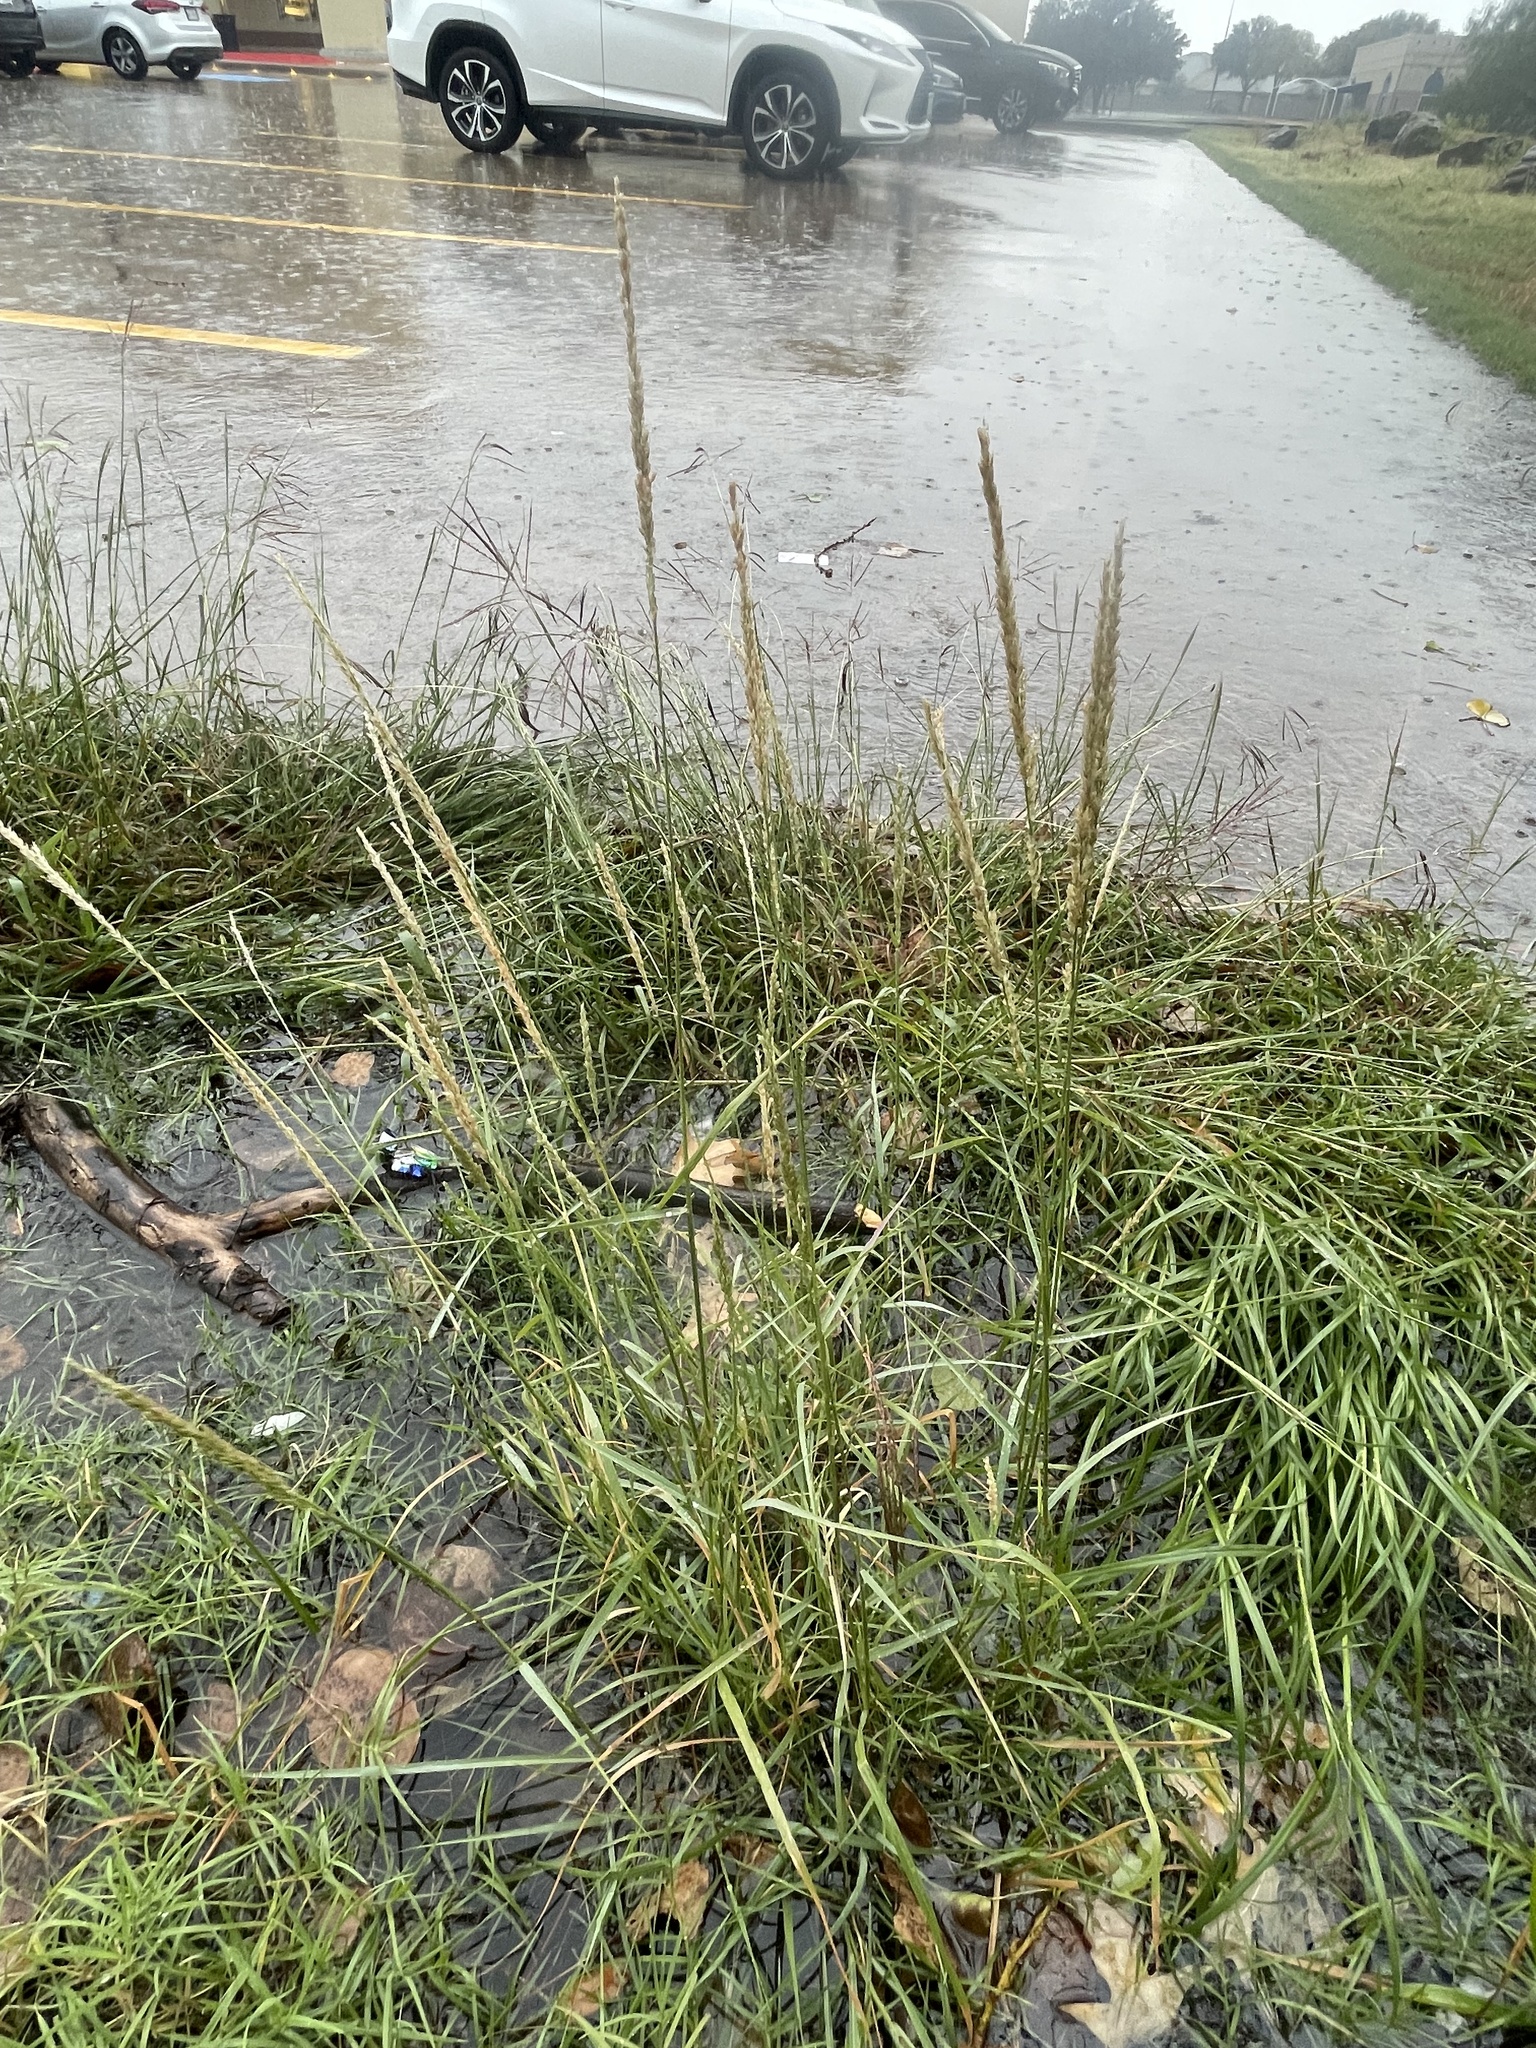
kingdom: Plantae
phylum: Tracheophyta
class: Liliopsida
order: Poales
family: Poaceae
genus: Tridens
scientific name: Tridens albescens
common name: White tridens
